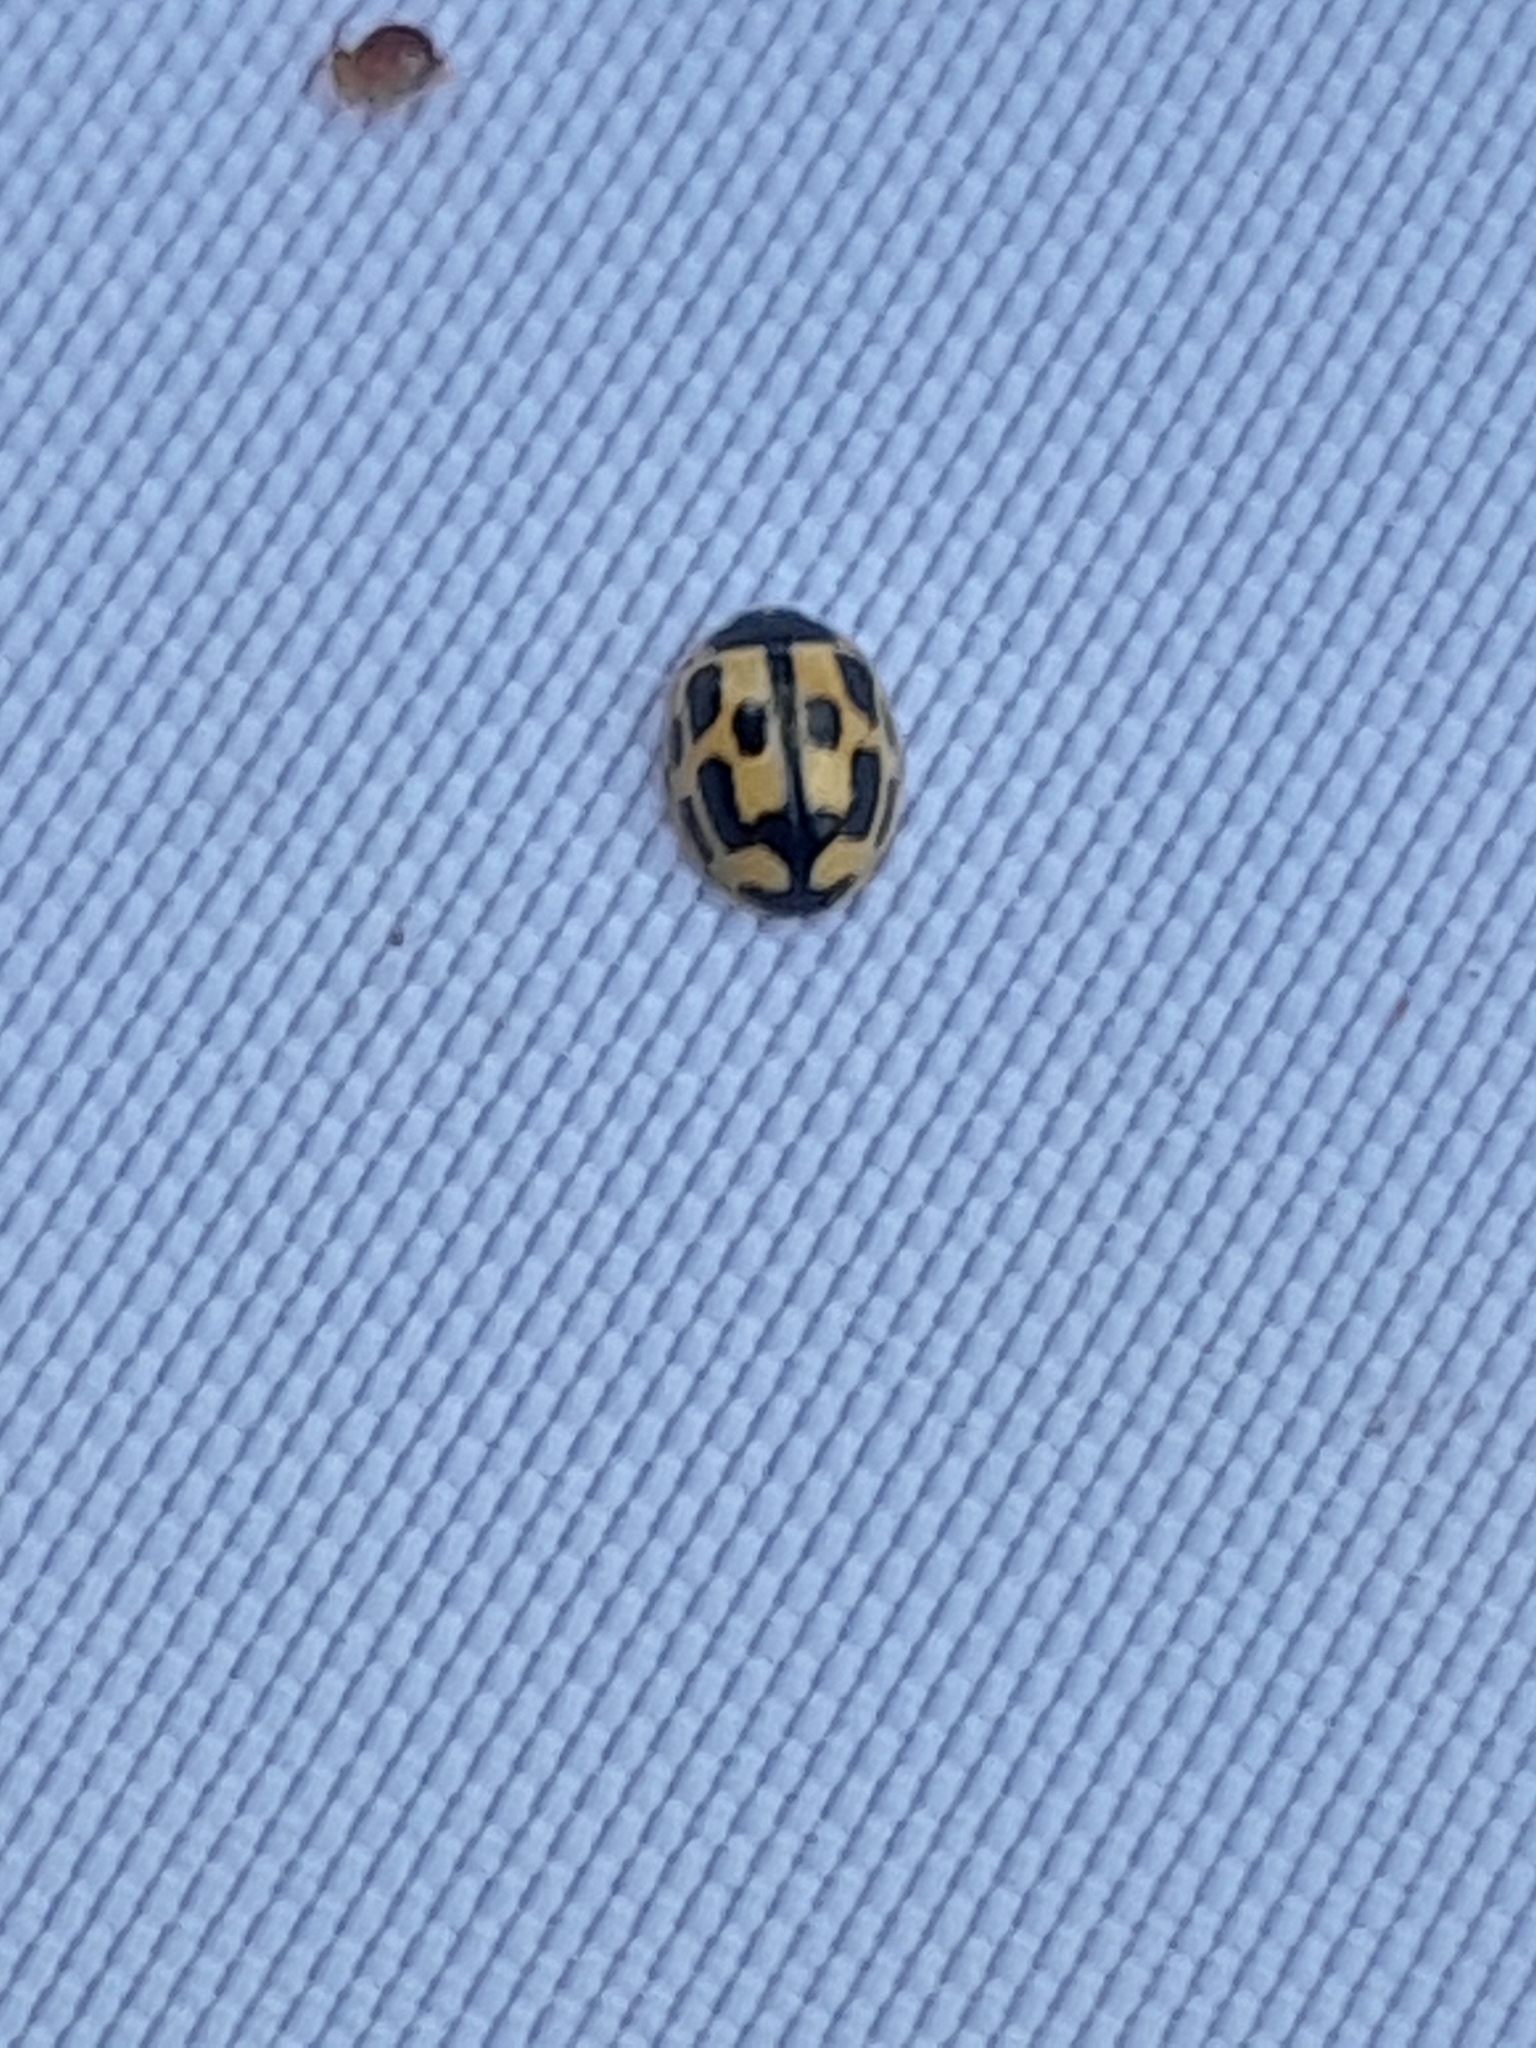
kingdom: Animalia
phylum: Arthropoda
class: Insecta
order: Coleoptera
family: Coccinellidae
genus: Propylaea
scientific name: Propylaea quatuordecimpunctata
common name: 14-spotted ladybird beetle
